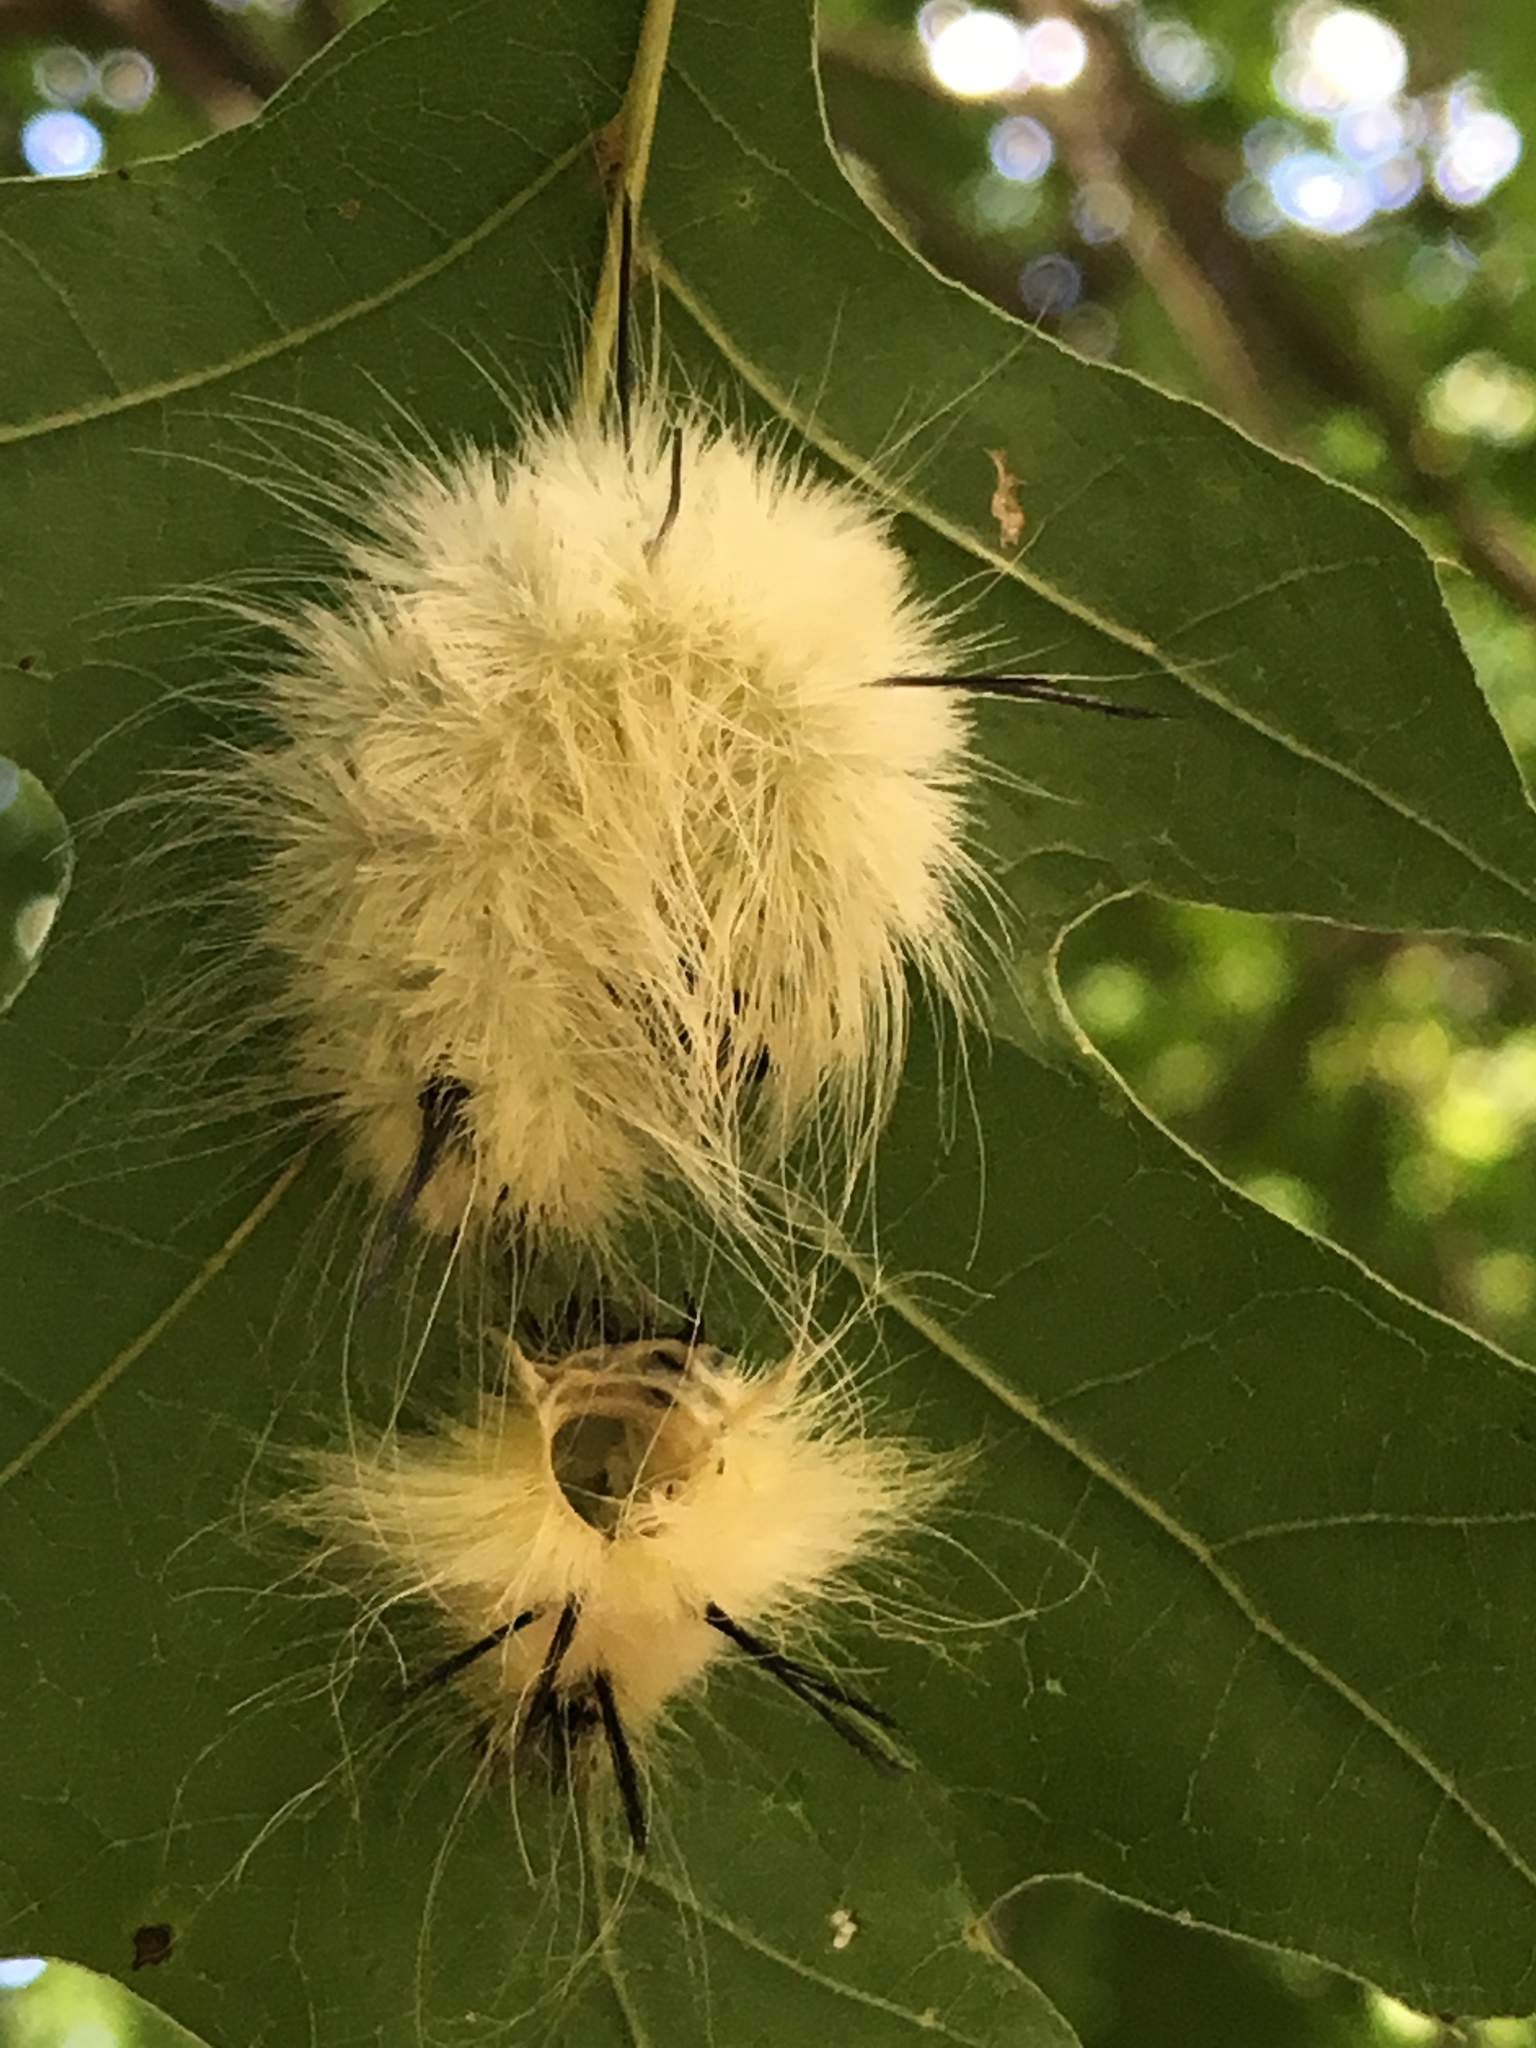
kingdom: Animalia
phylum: Arthropoda
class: Insecta
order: Lepidoptera
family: Noctuidae
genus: Acronicta
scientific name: Acronicta americana
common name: American dagger
